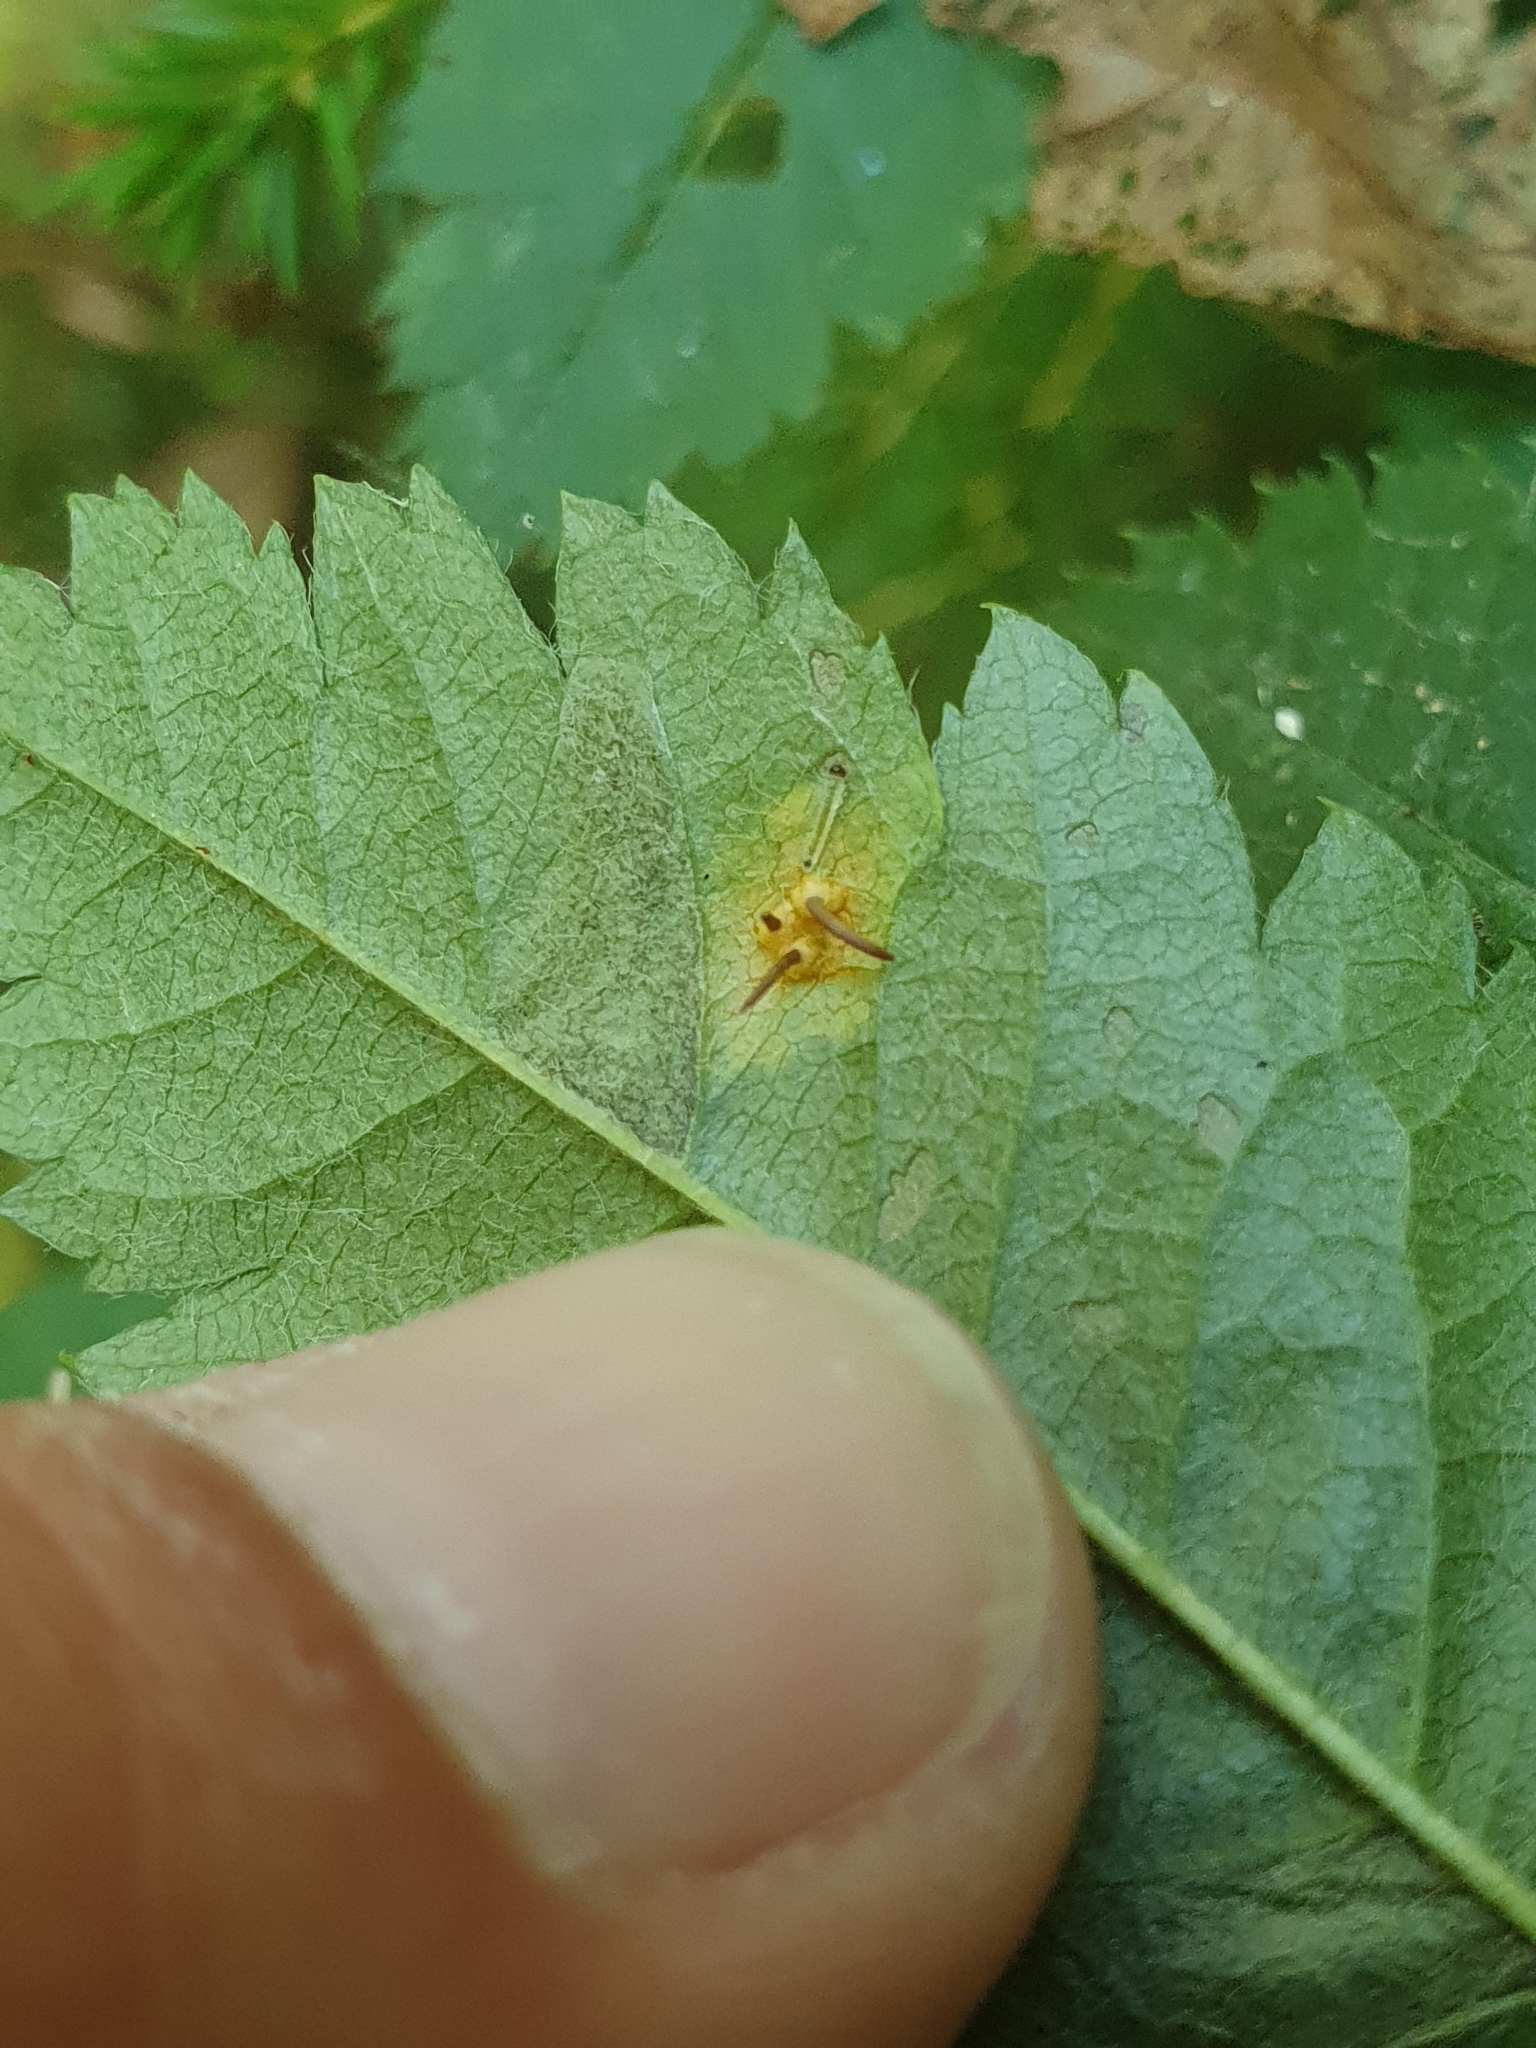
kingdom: Fungi
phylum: Basidiomycota
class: Pucciniomycetes
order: Pucciniales
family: Gymnosporangiaceae
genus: Gymnosporangium
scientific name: Gymnosporangium cornutum
